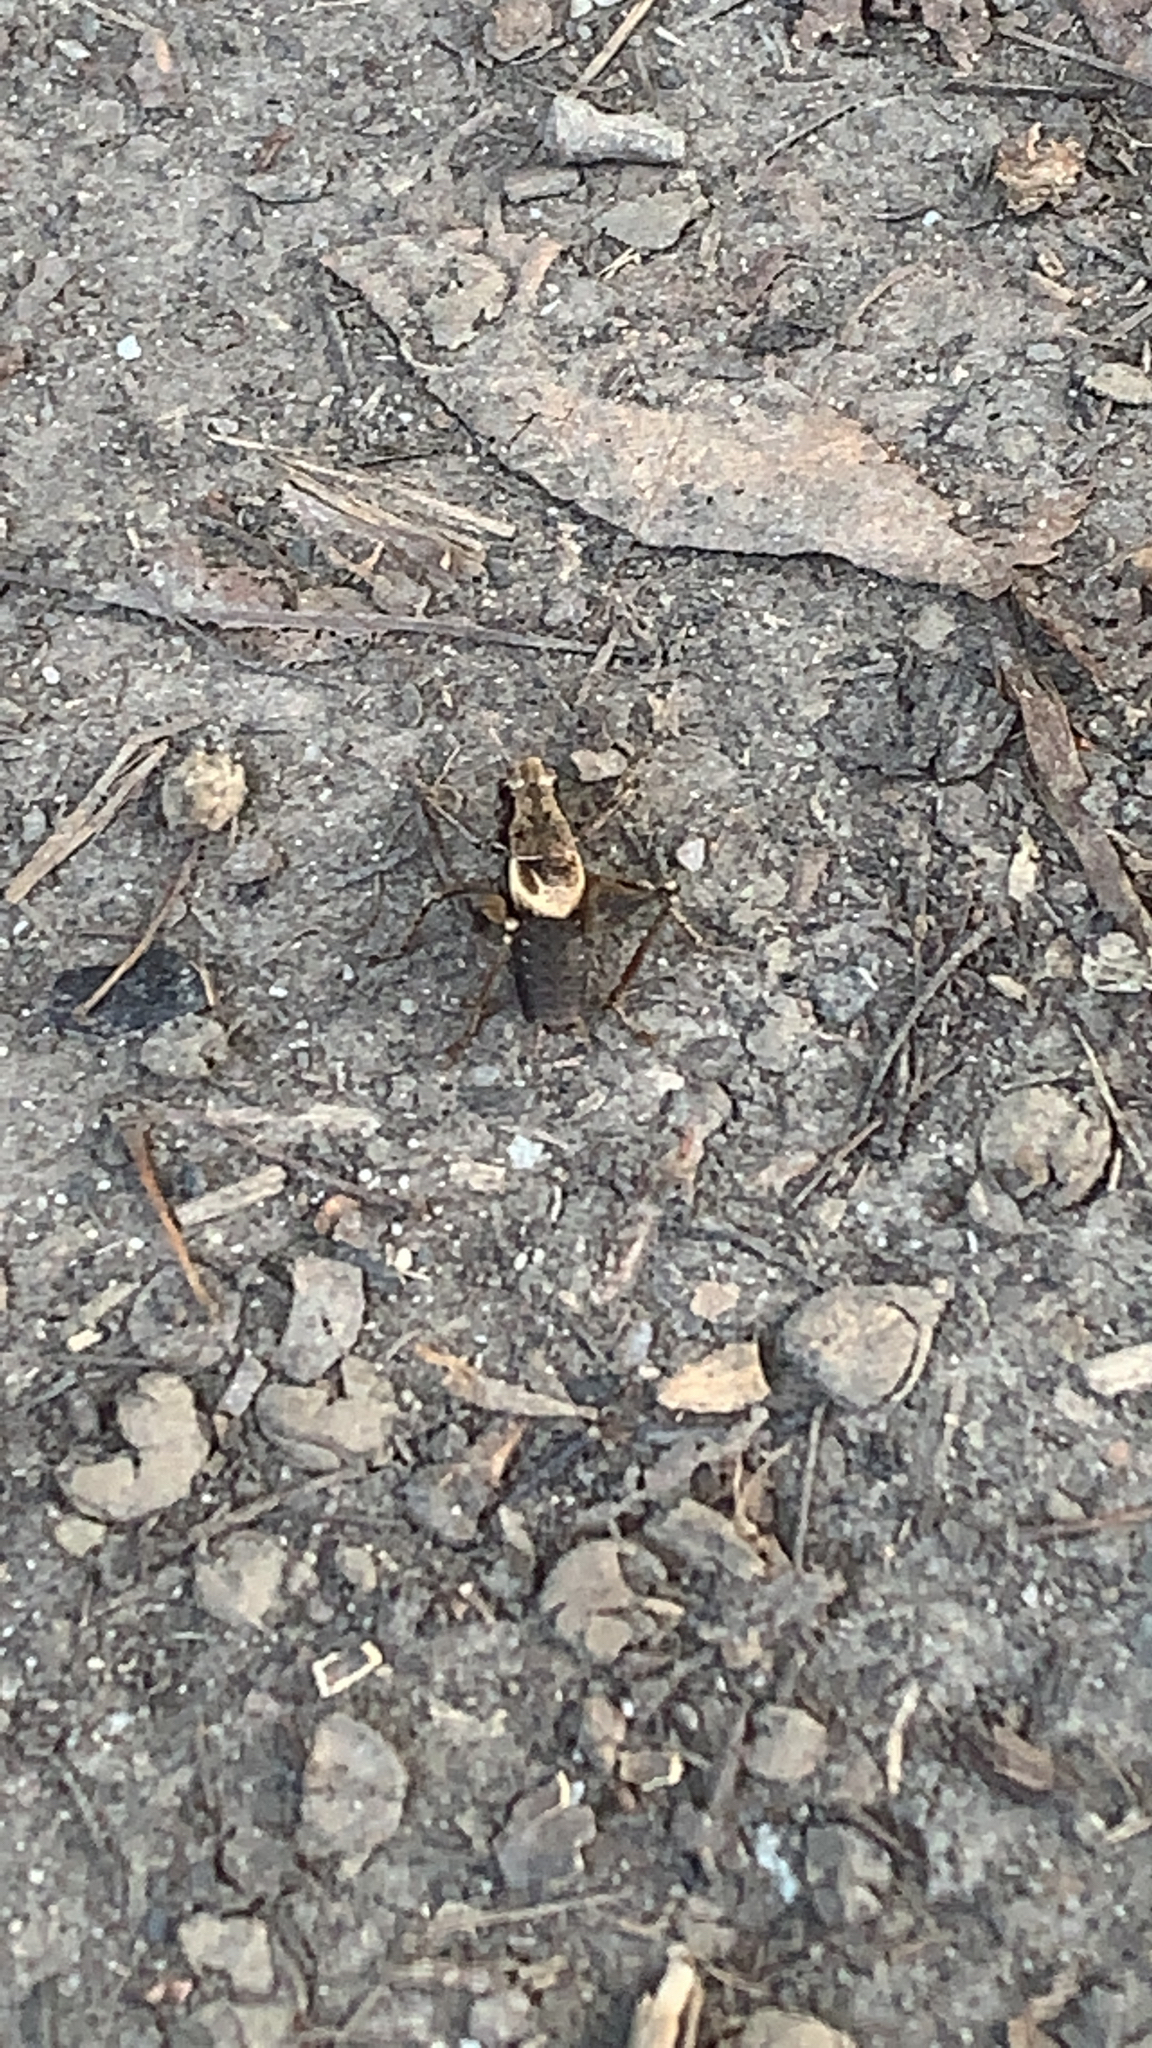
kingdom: Animalia
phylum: Arthropoda
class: Insecta
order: Orthoptera
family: Tettigoniidae
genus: Pholidoptera
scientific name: Pholidoptera griseoaptera
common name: Dark bush-cricket
